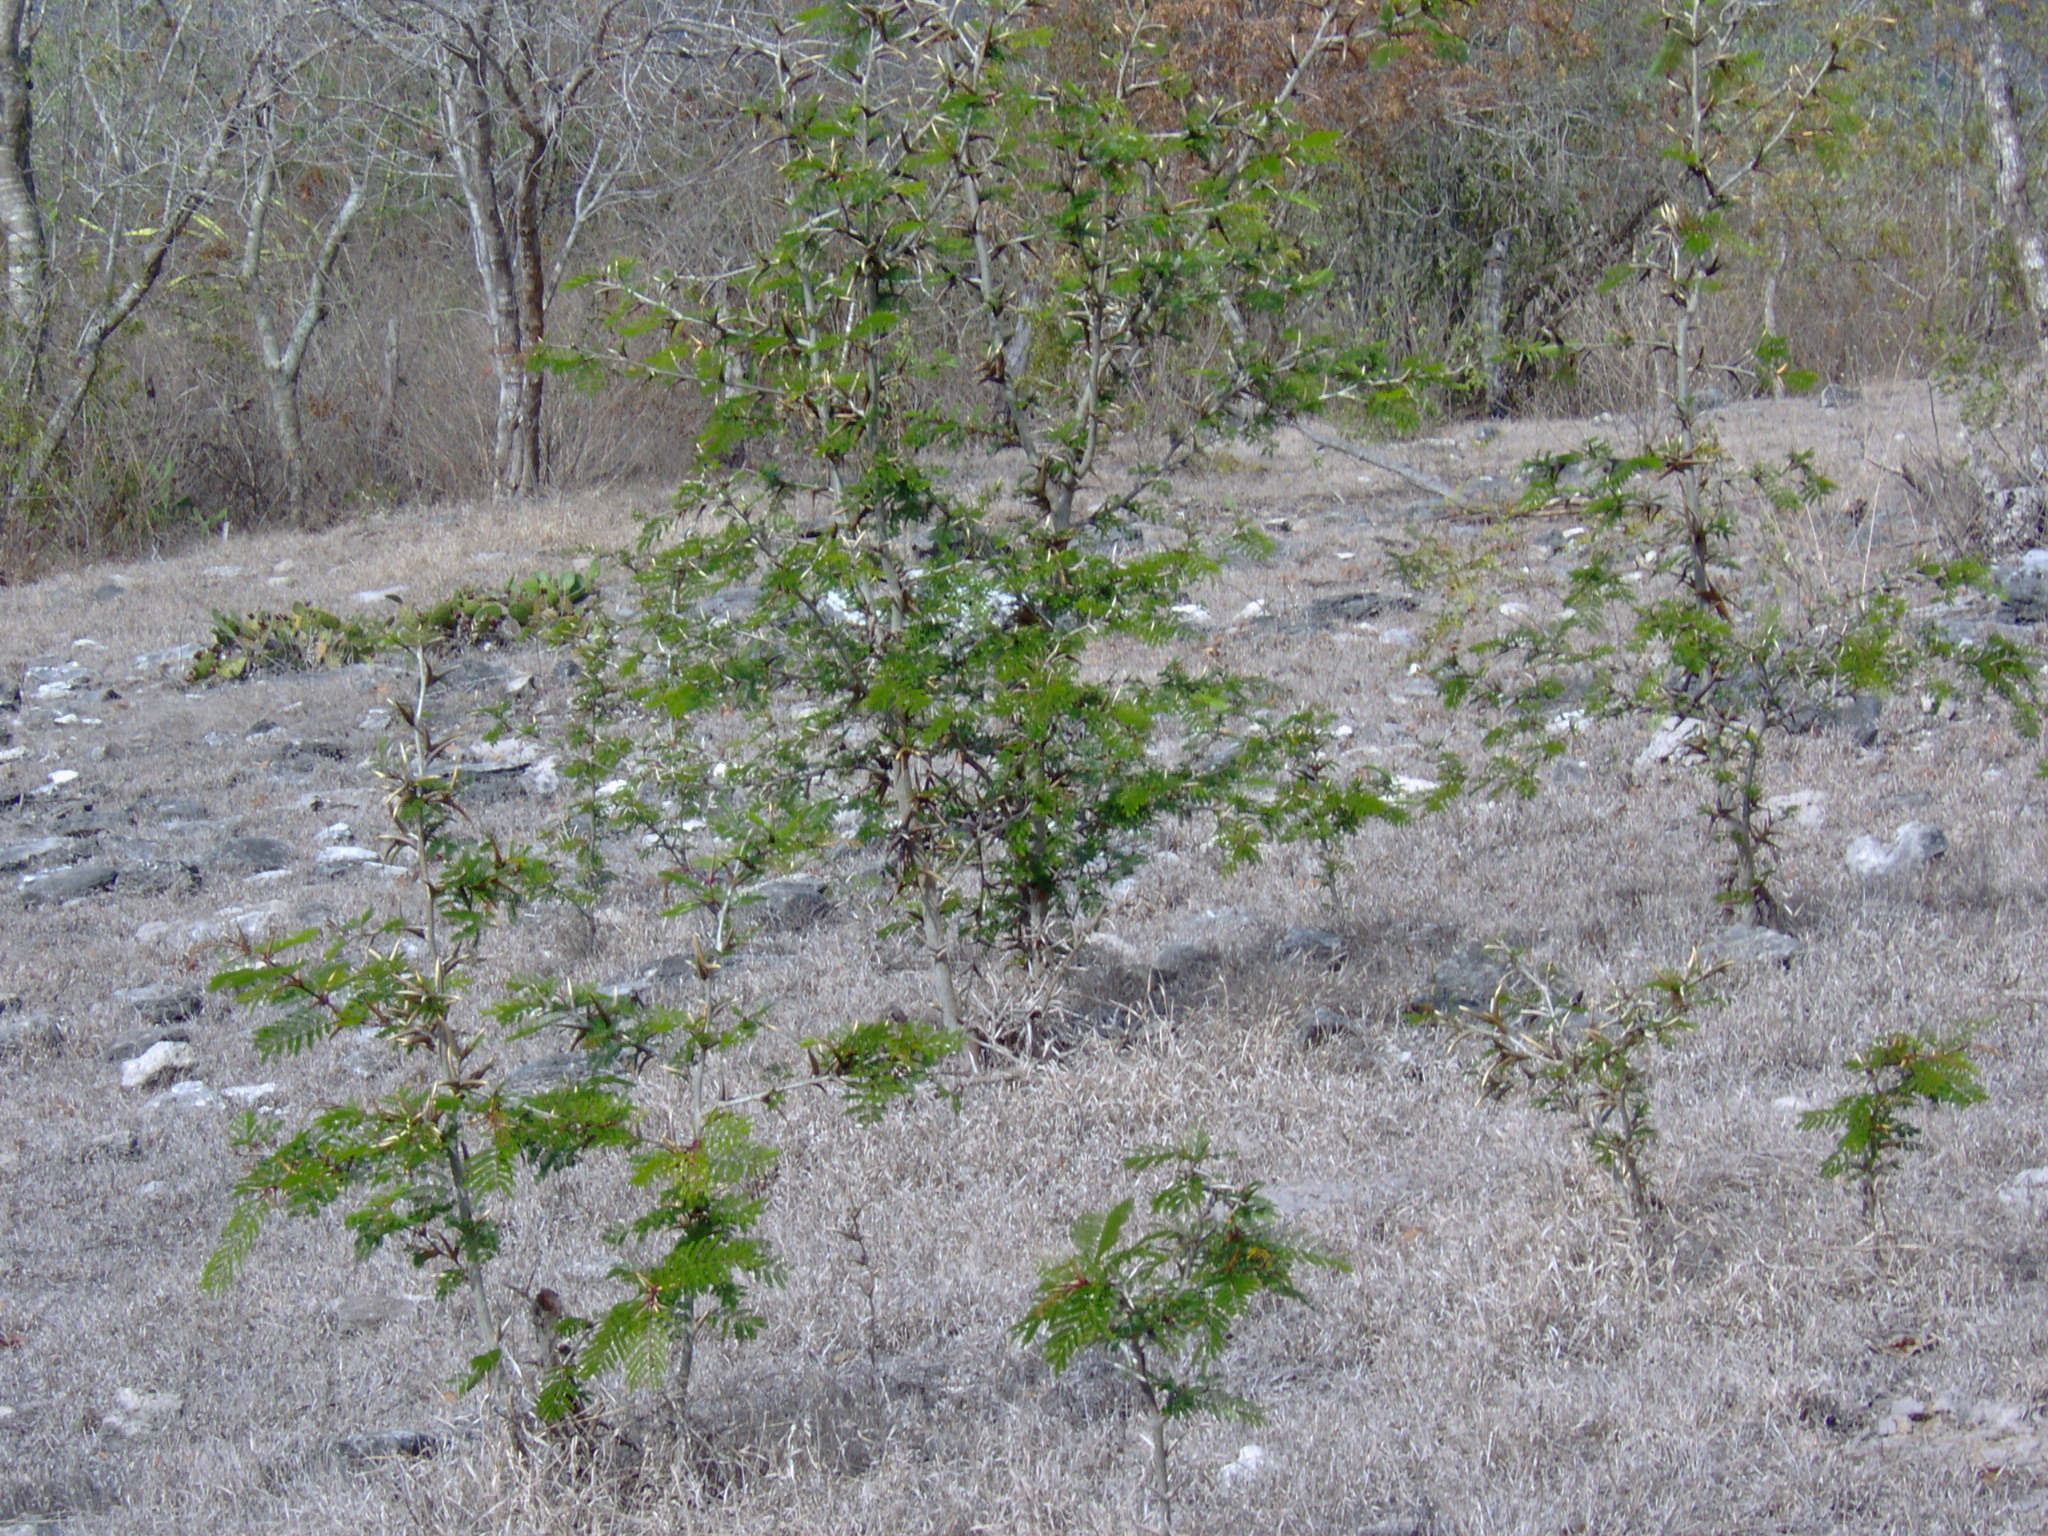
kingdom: Plantae
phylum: Tracheophyta
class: Magnoliopsida
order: Fabales
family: Fabaceae
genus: Vachellia
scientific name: Vachellia cornigera
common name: Bullhorn wattle
